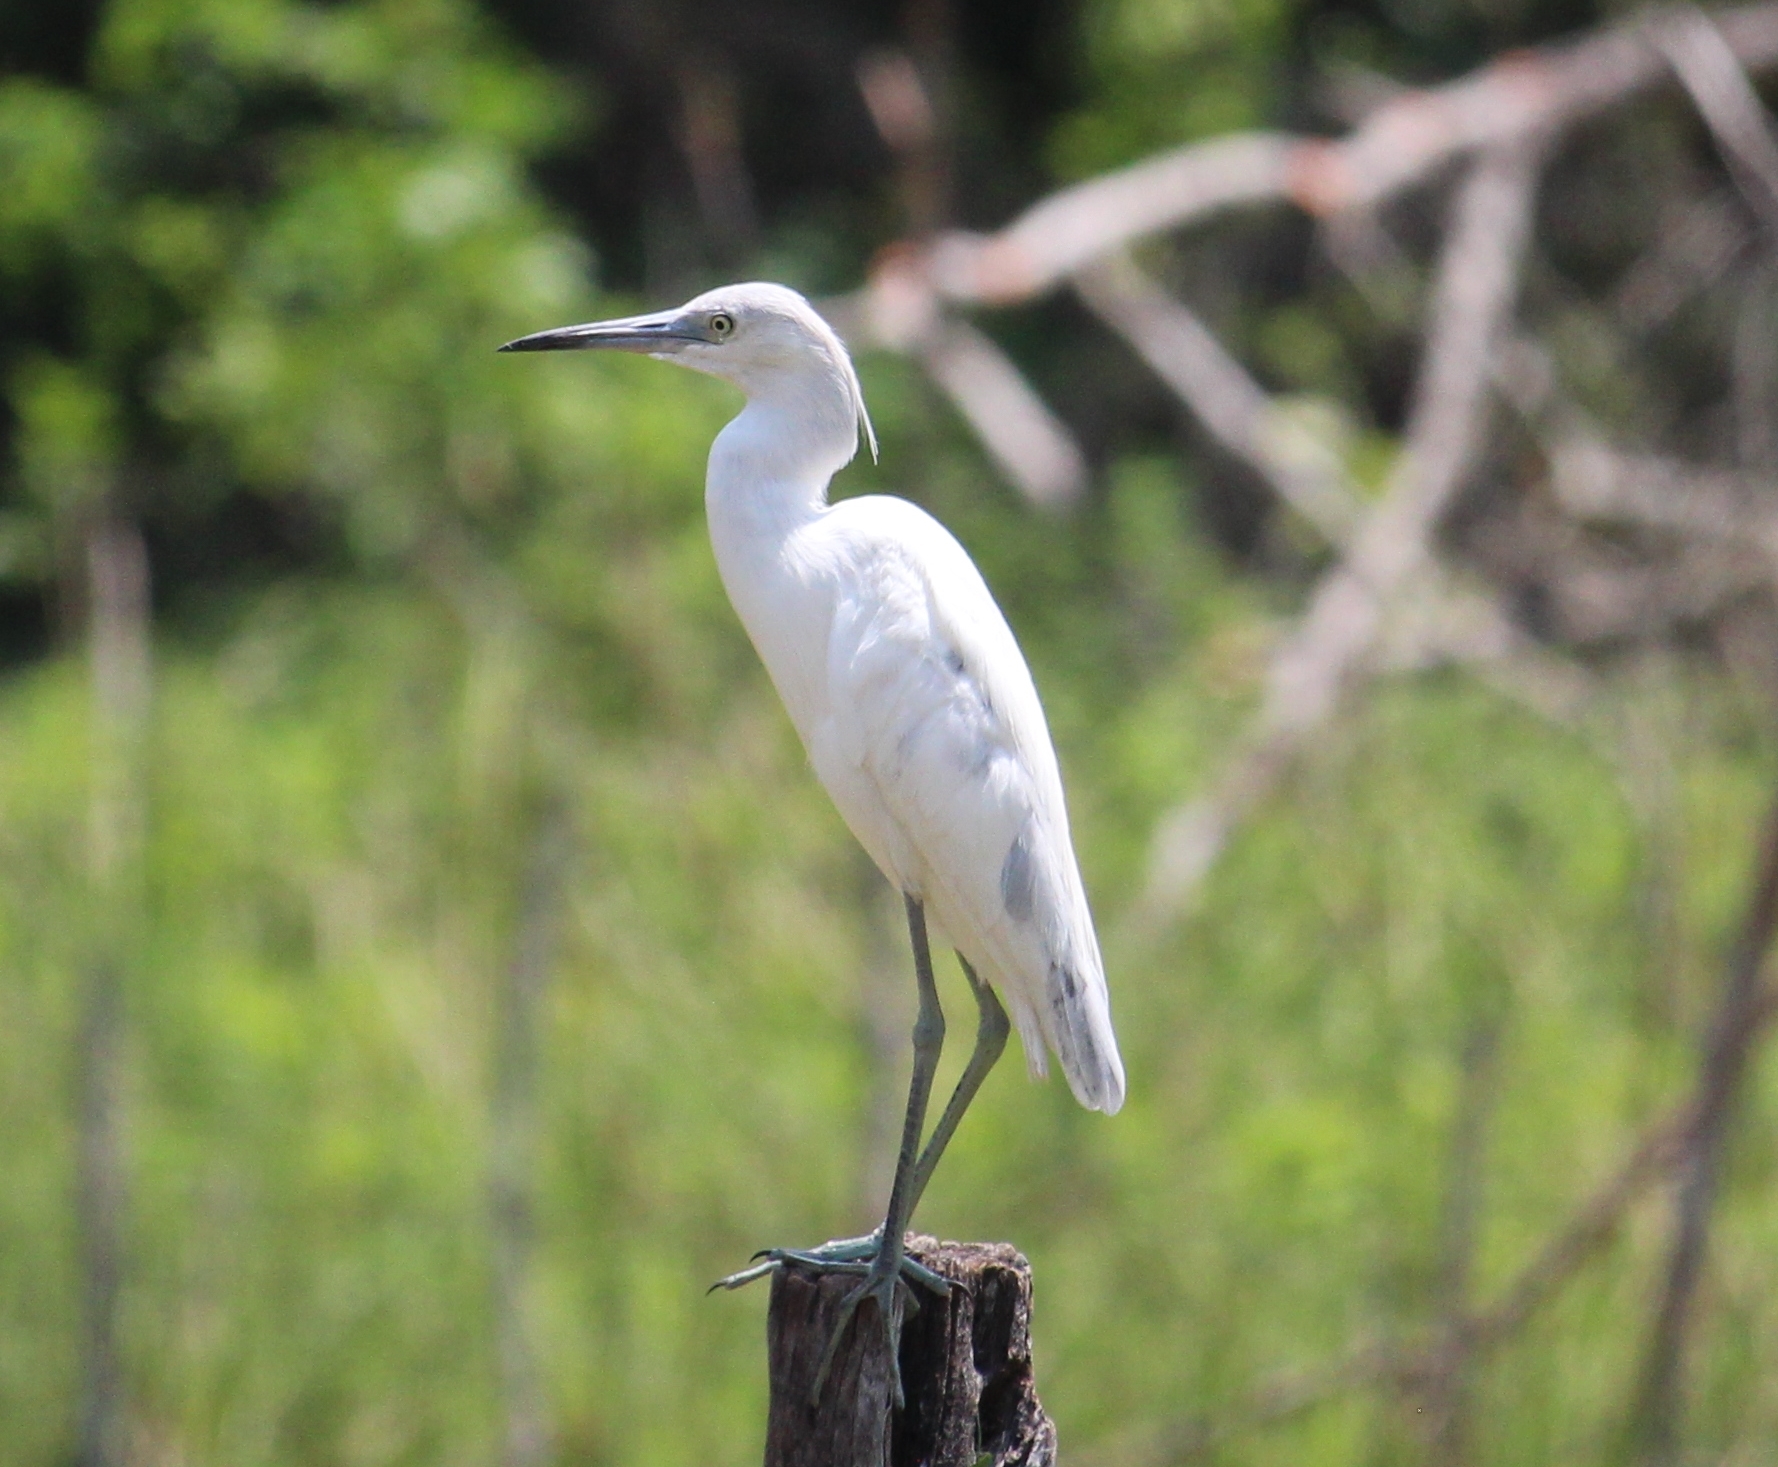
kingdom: Animalia
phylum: Chordata
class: Aves
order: Pelecaniformes
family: Ardeidae
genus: Egretta
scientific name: Egretta caerulea
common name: Little blue heron
